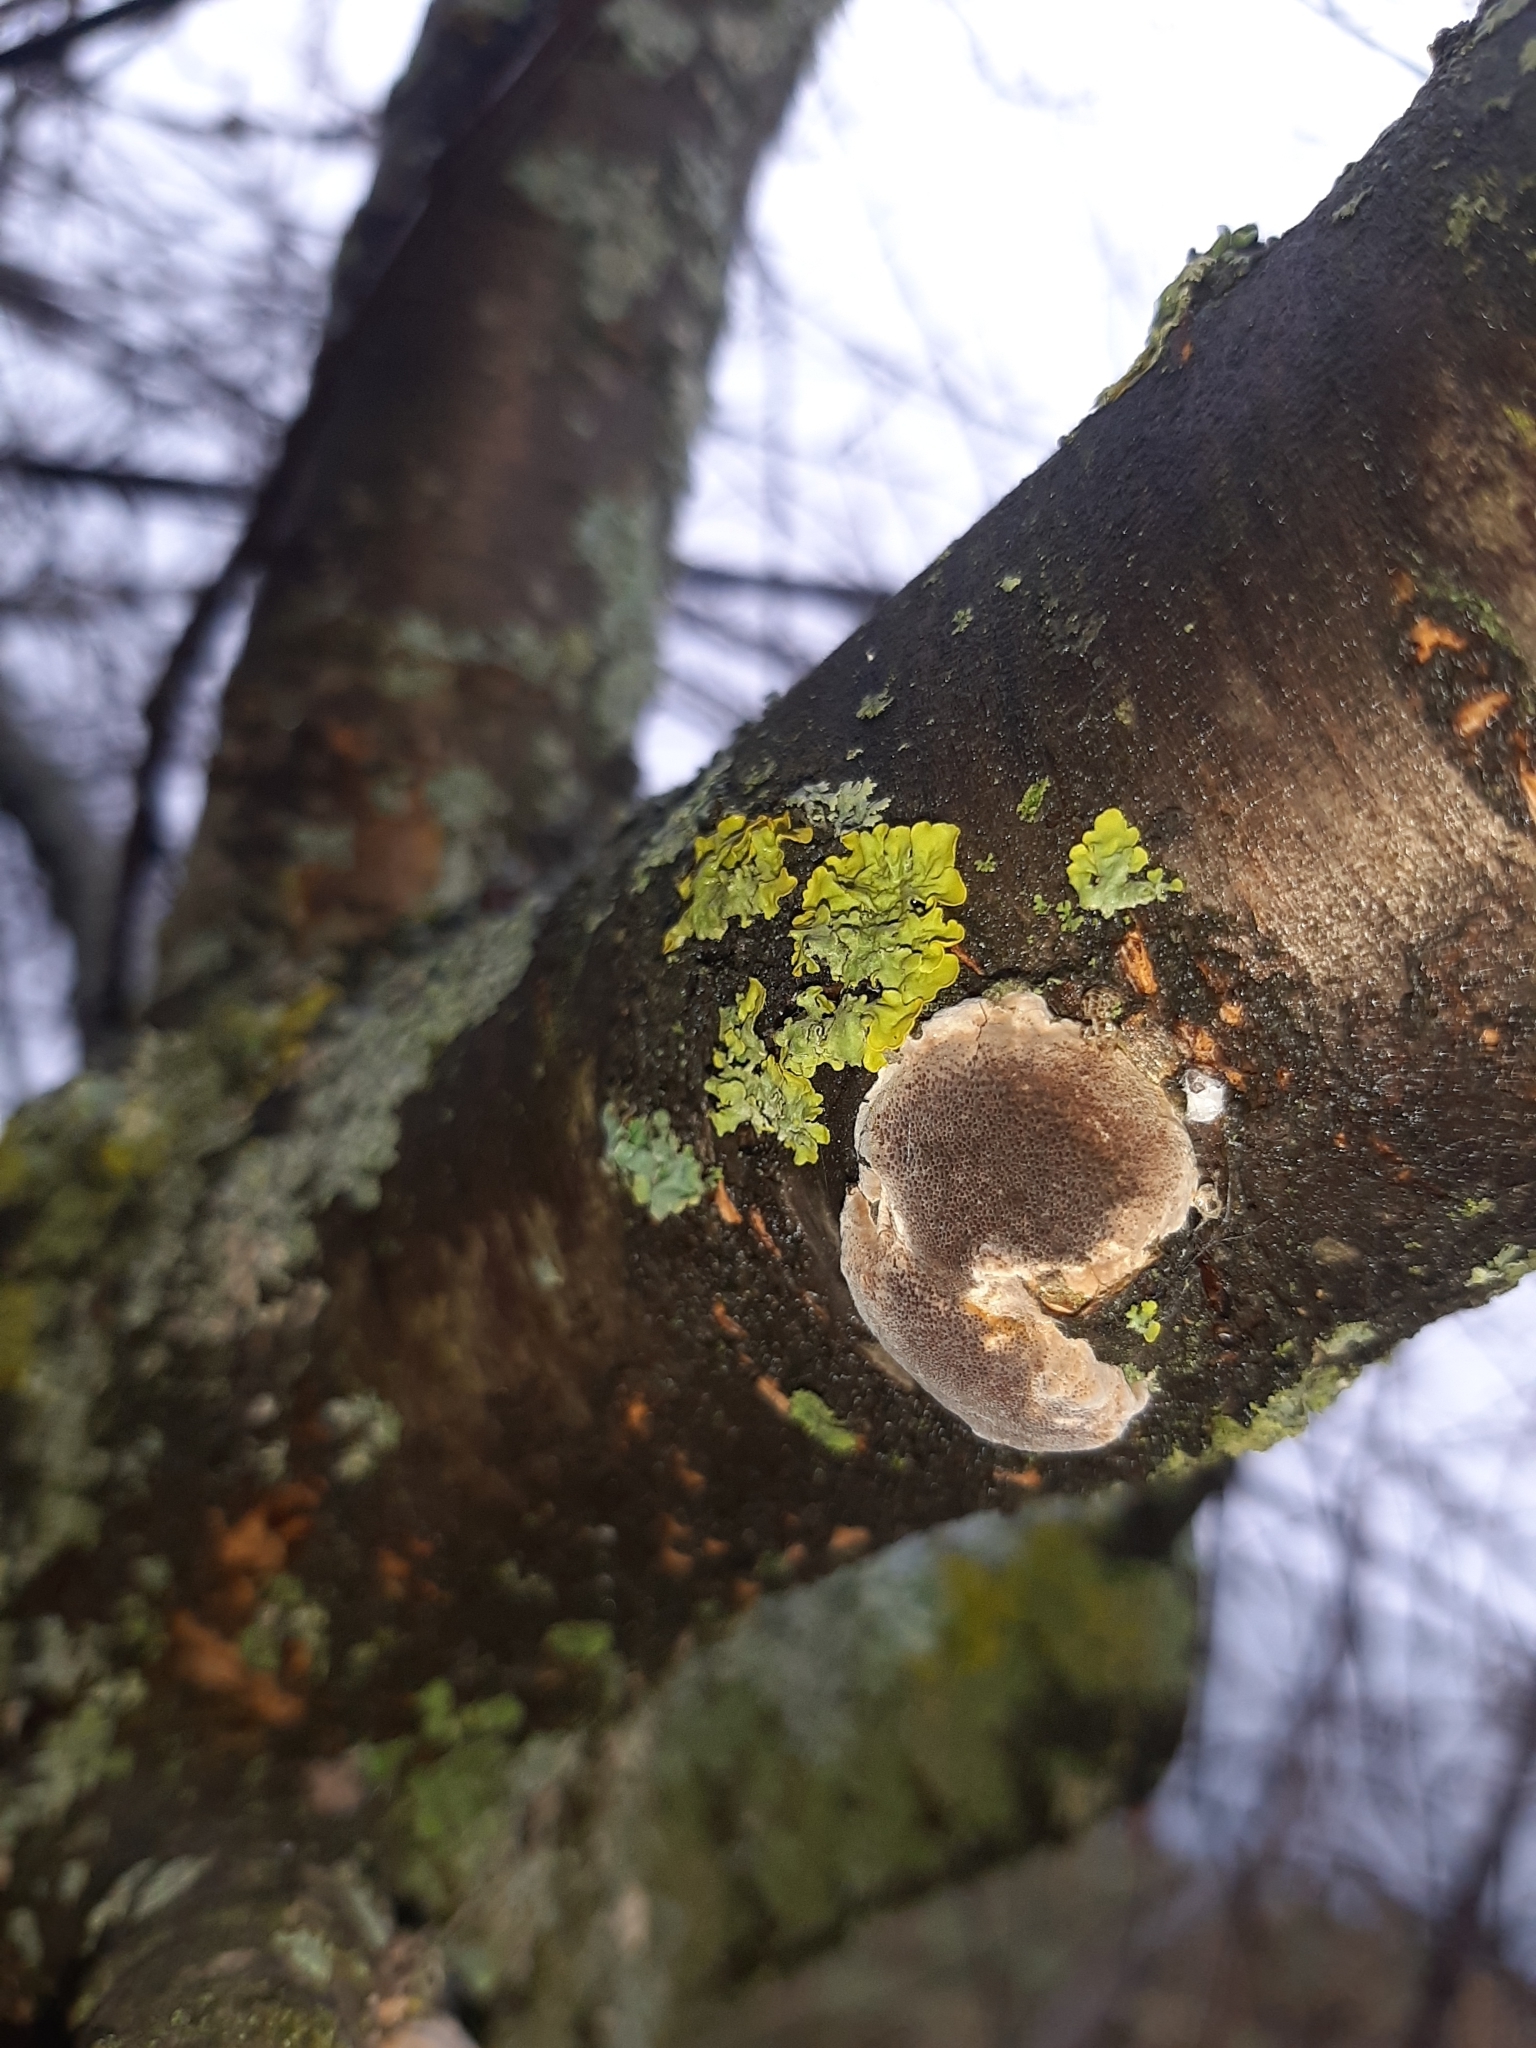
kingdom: Fungi
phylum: Basidiomycota
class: Agaricomycetes
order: Hymenochaetales
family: Hymenochaetaceae
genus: Phellinus
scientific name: Phellinus pomaceus
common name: Cushion bracket
